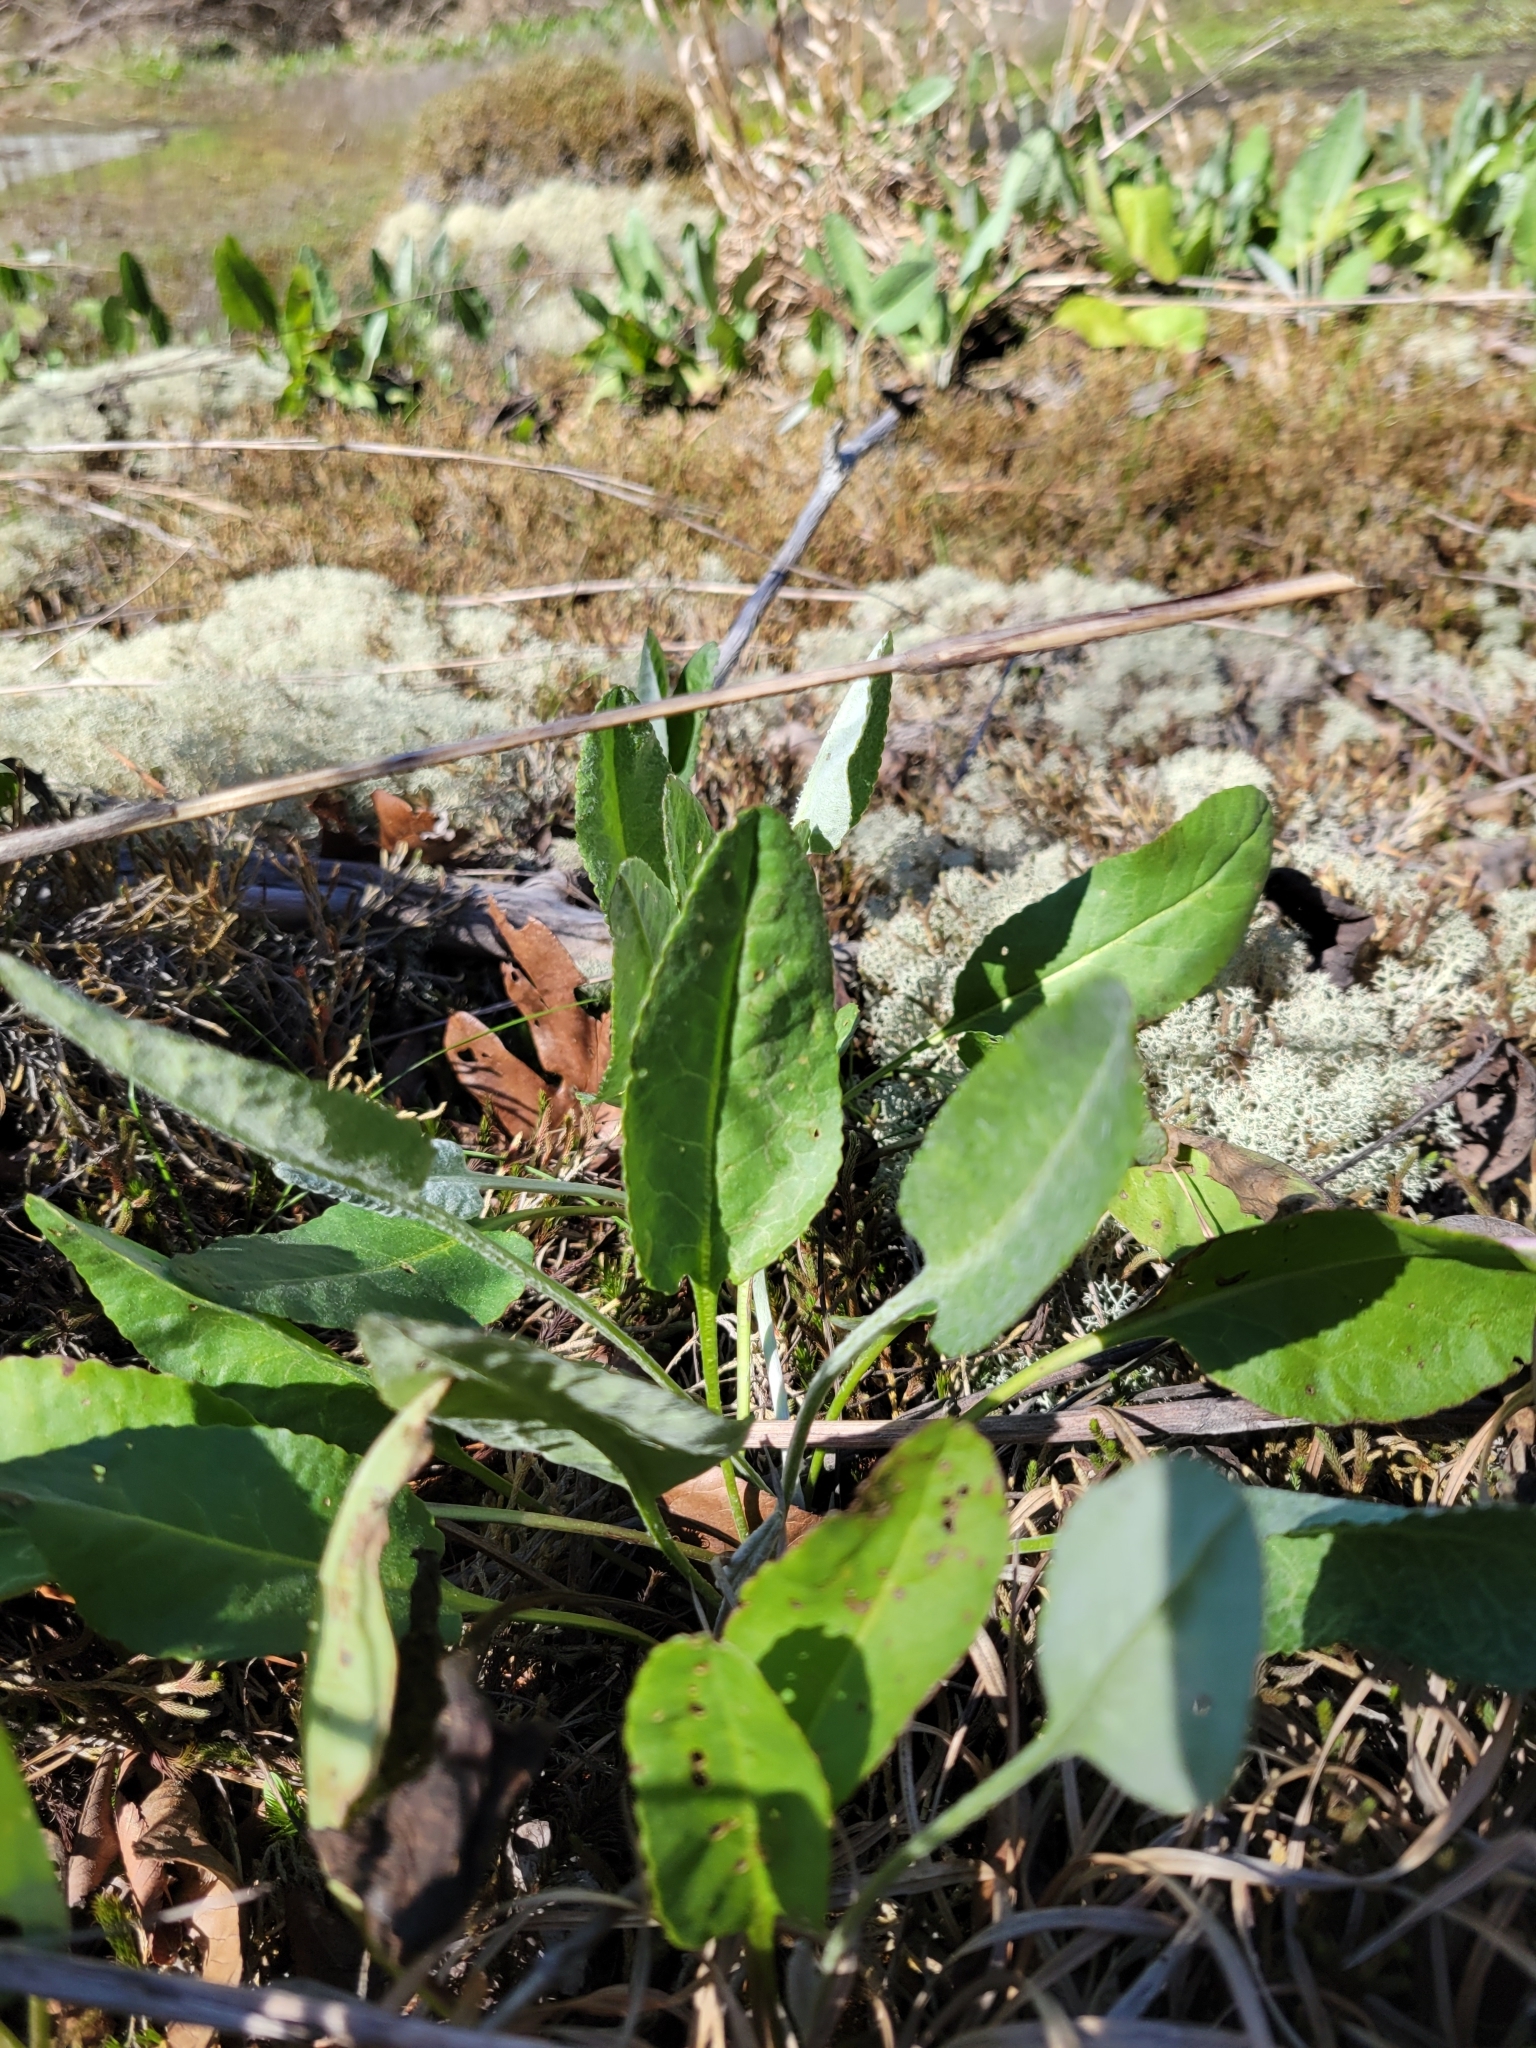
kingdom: Plantae
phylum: Tracheophyta
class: Magnoliopsida
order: Asterales
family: Asteraceae
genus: Packera
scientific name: Packera dubia
